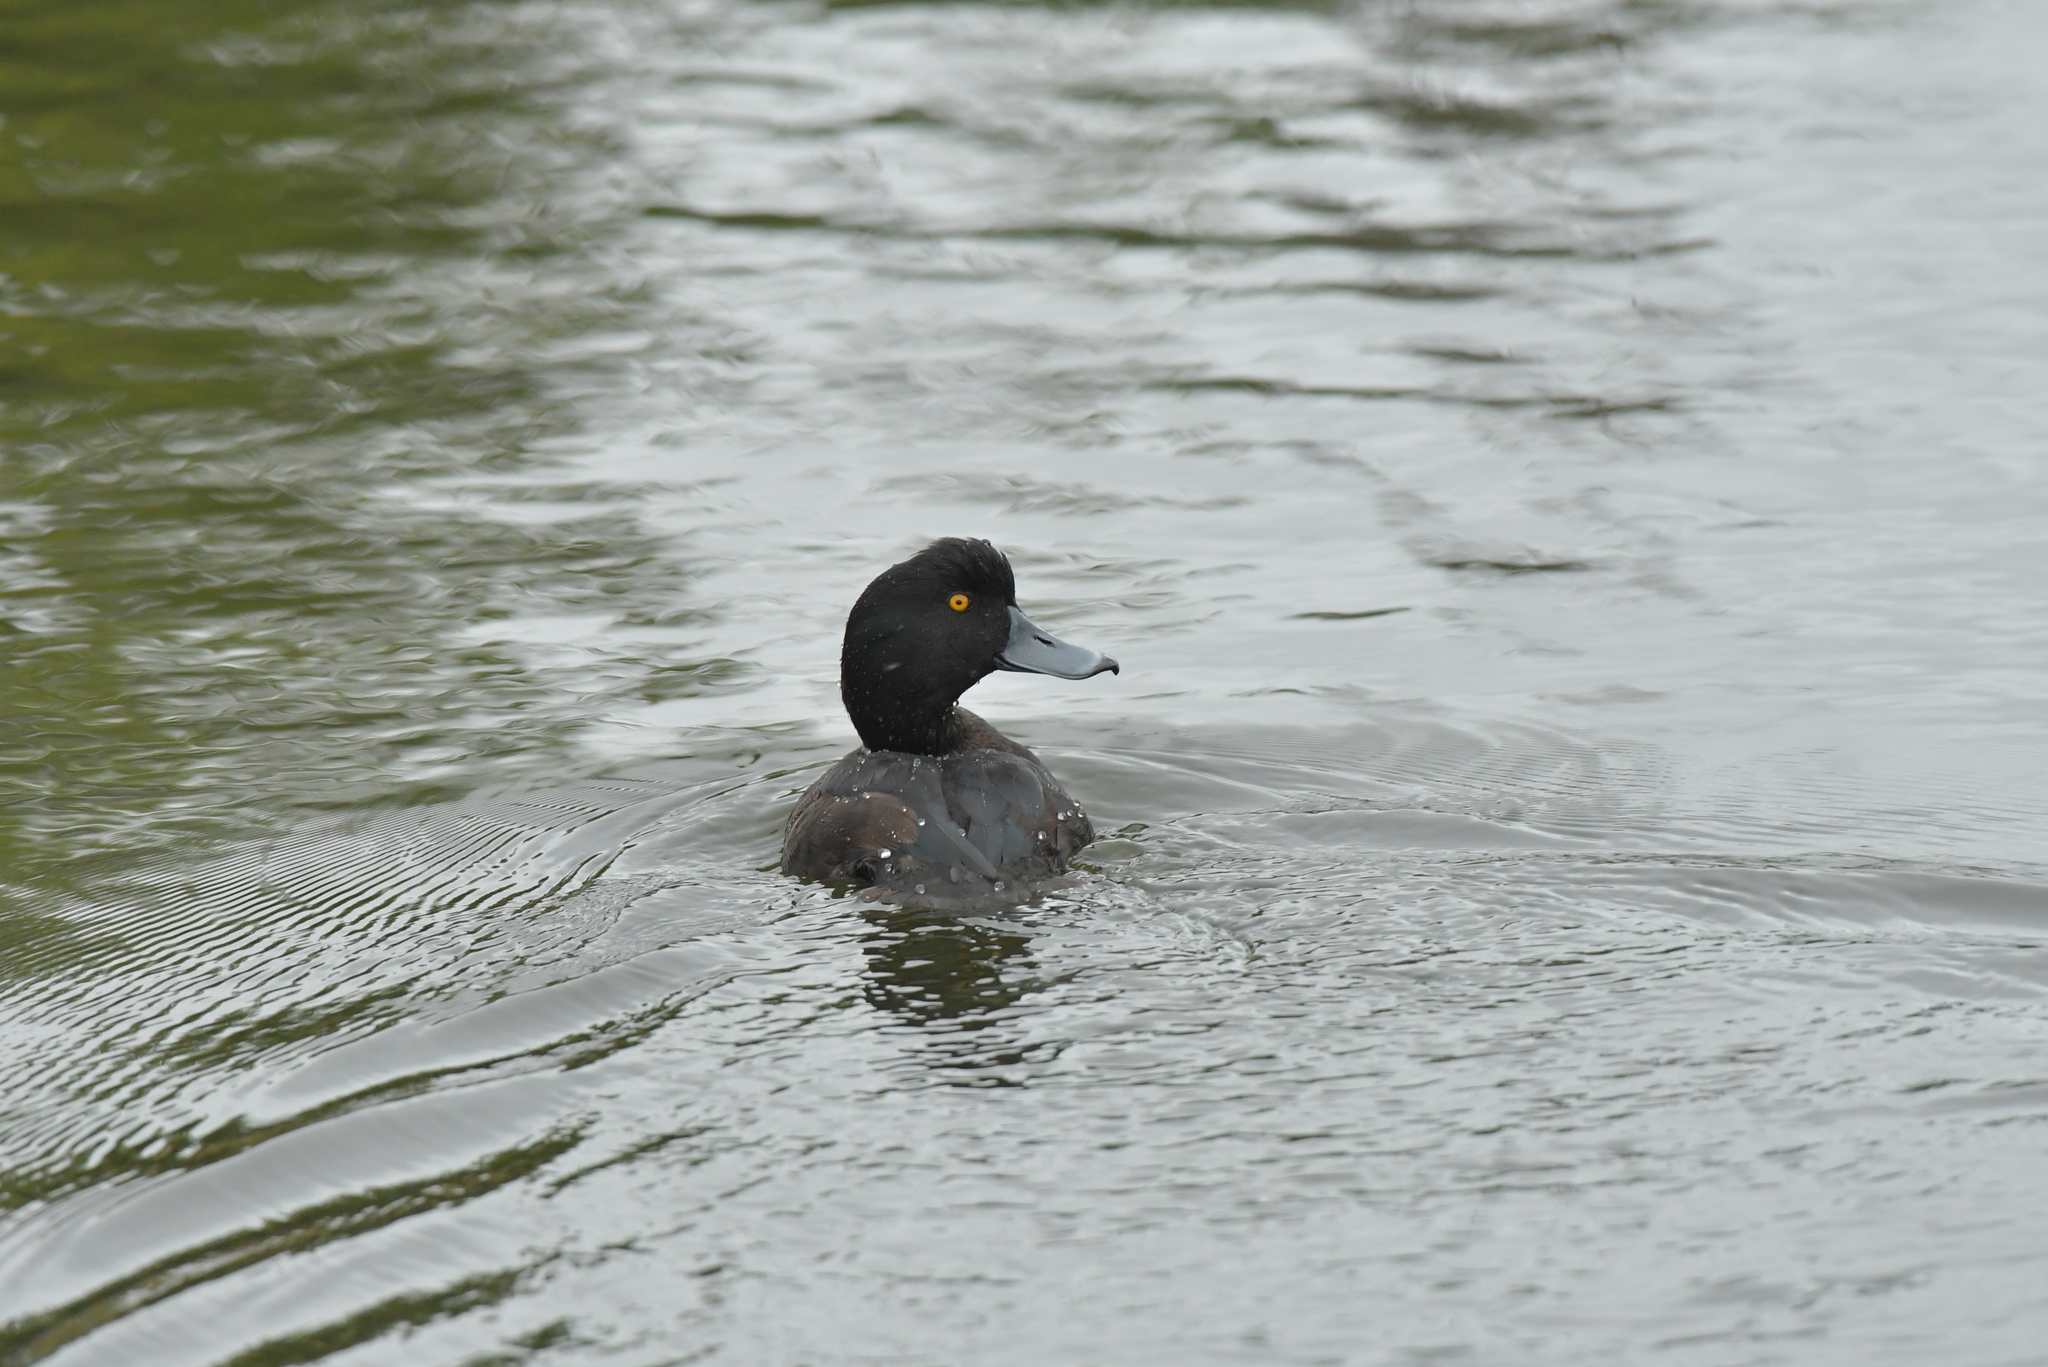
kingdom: Animalia
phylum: Chordata
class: Aves
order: Anseriformes
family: Anatidae
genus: Aythya
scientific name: Aythya novaeseelandiae
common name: New zealand scaup
